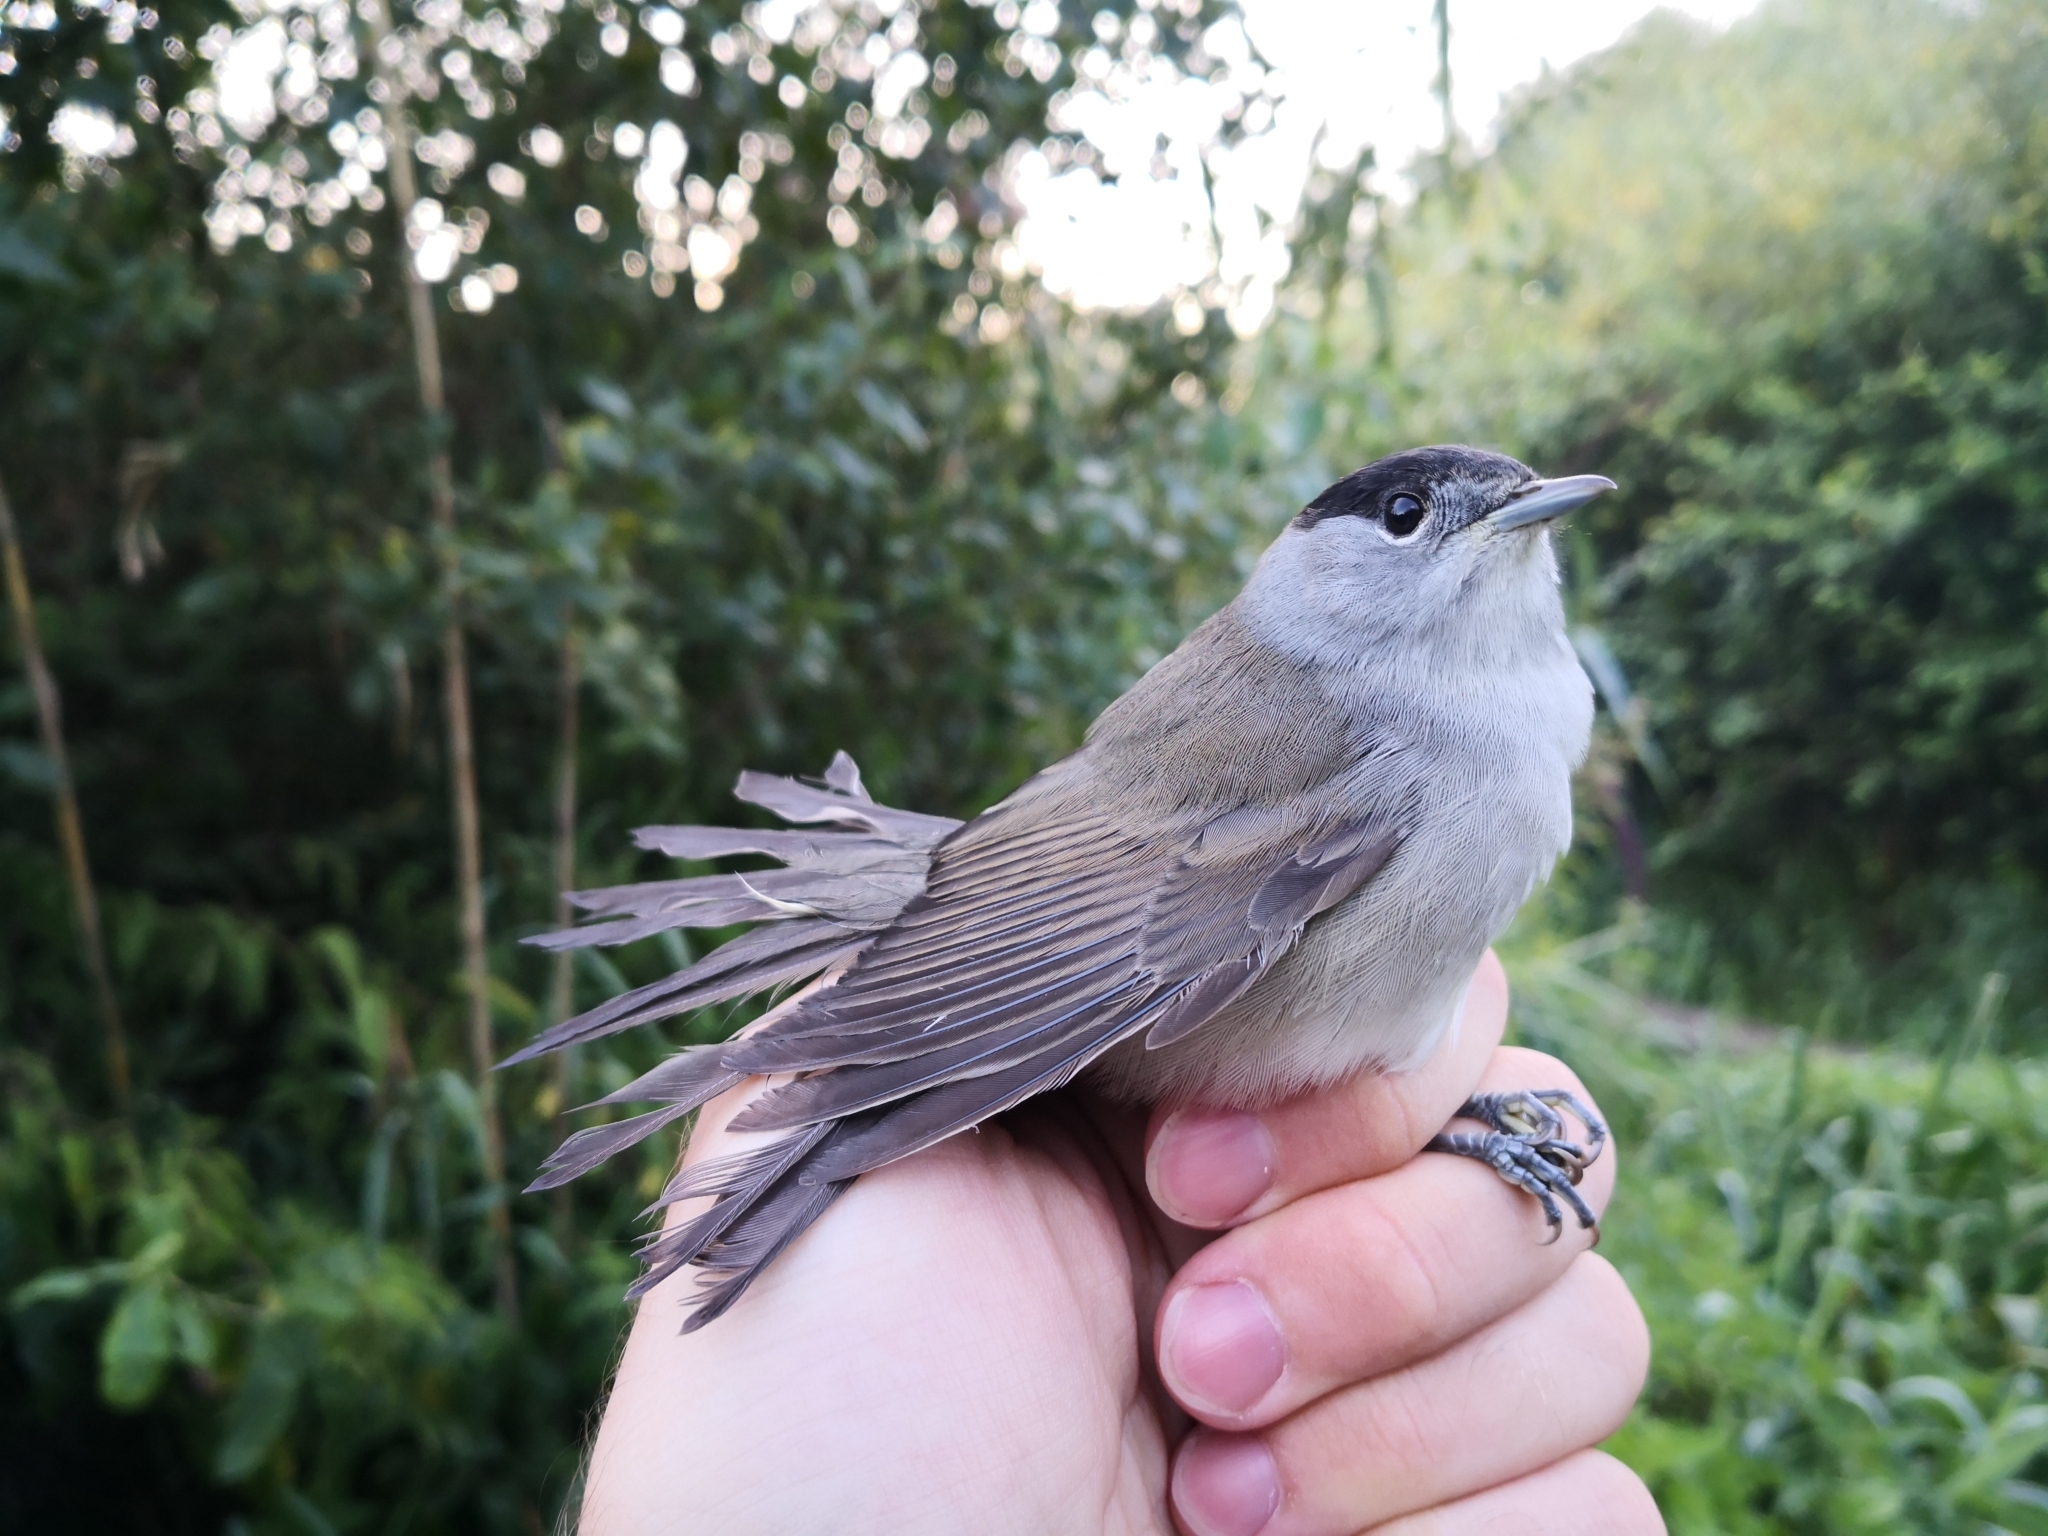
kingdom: Animalia
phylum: Chordata
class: Aves
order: Passeriformes
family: Sylviidae
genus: Sylvia
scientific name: Sylvia atricapilla
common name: Eurasian blackcap
